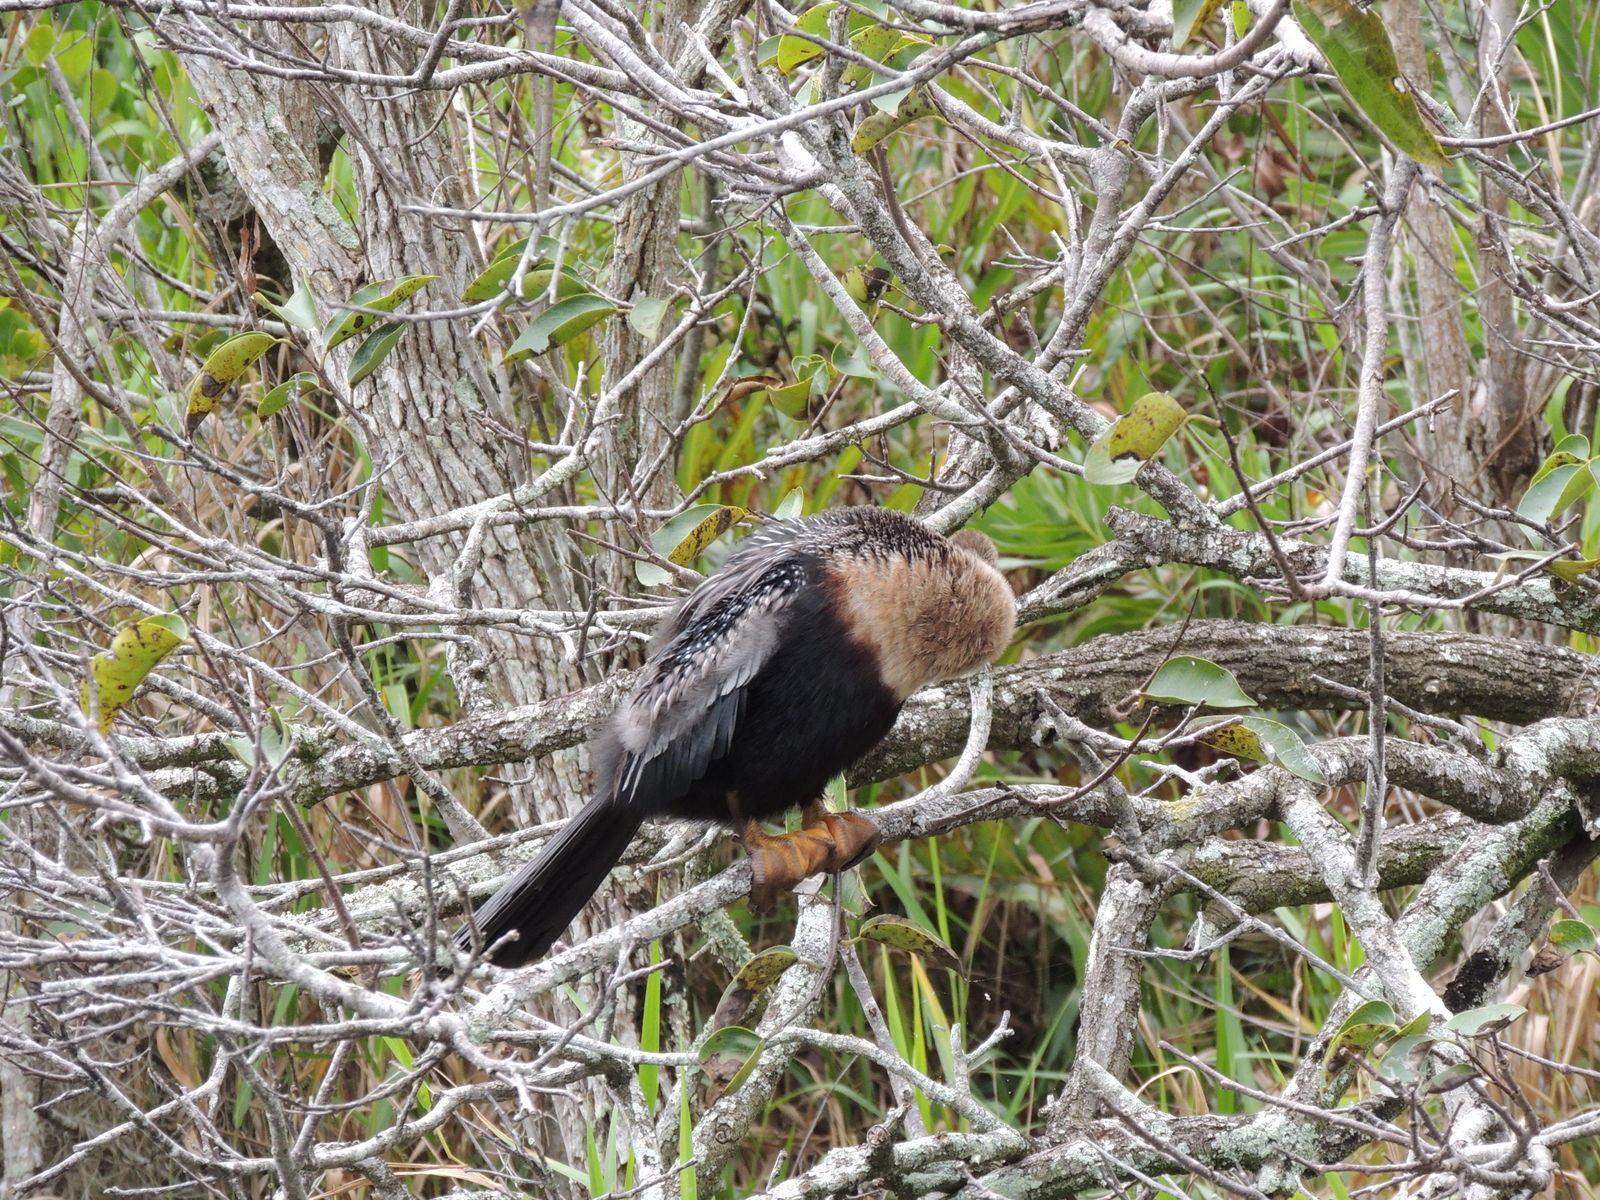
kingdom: Animalia
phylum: Chordata
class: Aves
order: Suliformes
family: Anhingidae
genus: Anhinga
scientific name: Anhinga anhinga
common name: Anhinga
